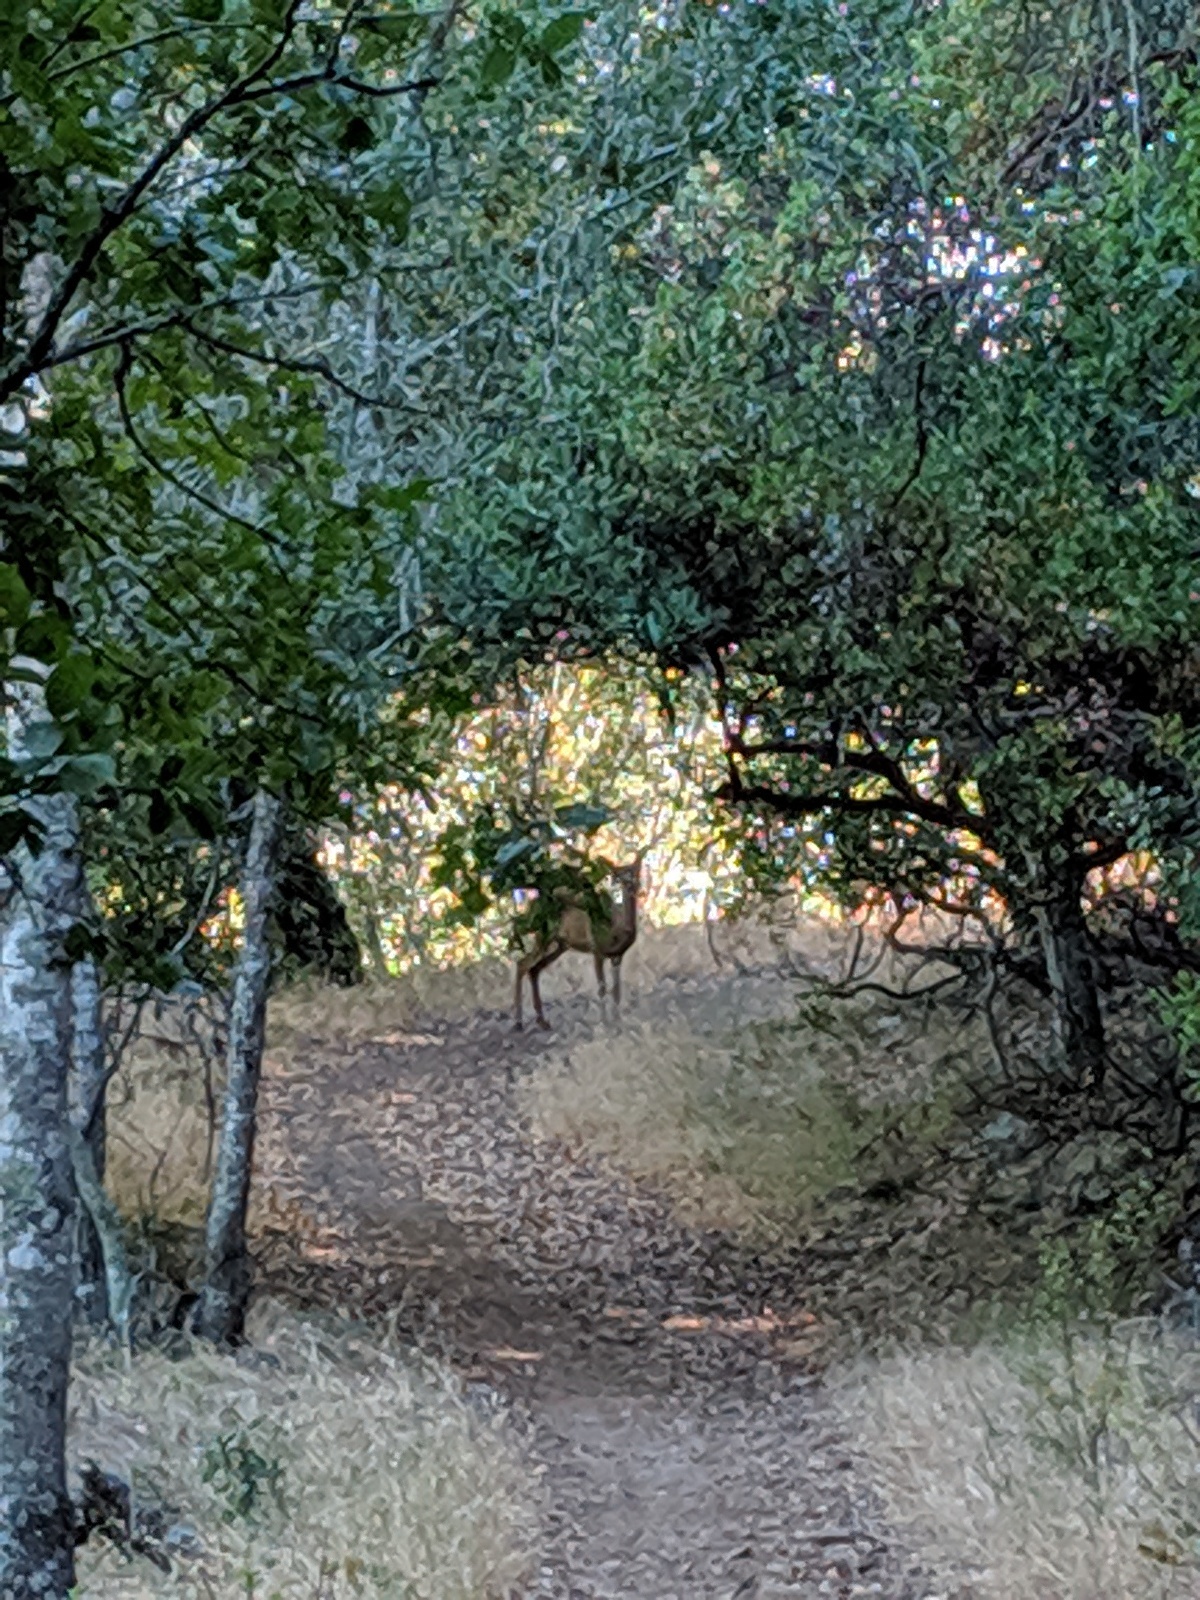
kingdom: Animalia
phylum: Chordata
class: Mammalia
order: Artiodactyla
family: Cervidae
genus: Odocoileus
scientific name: Odocoileus hemionus
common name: Mule deer
